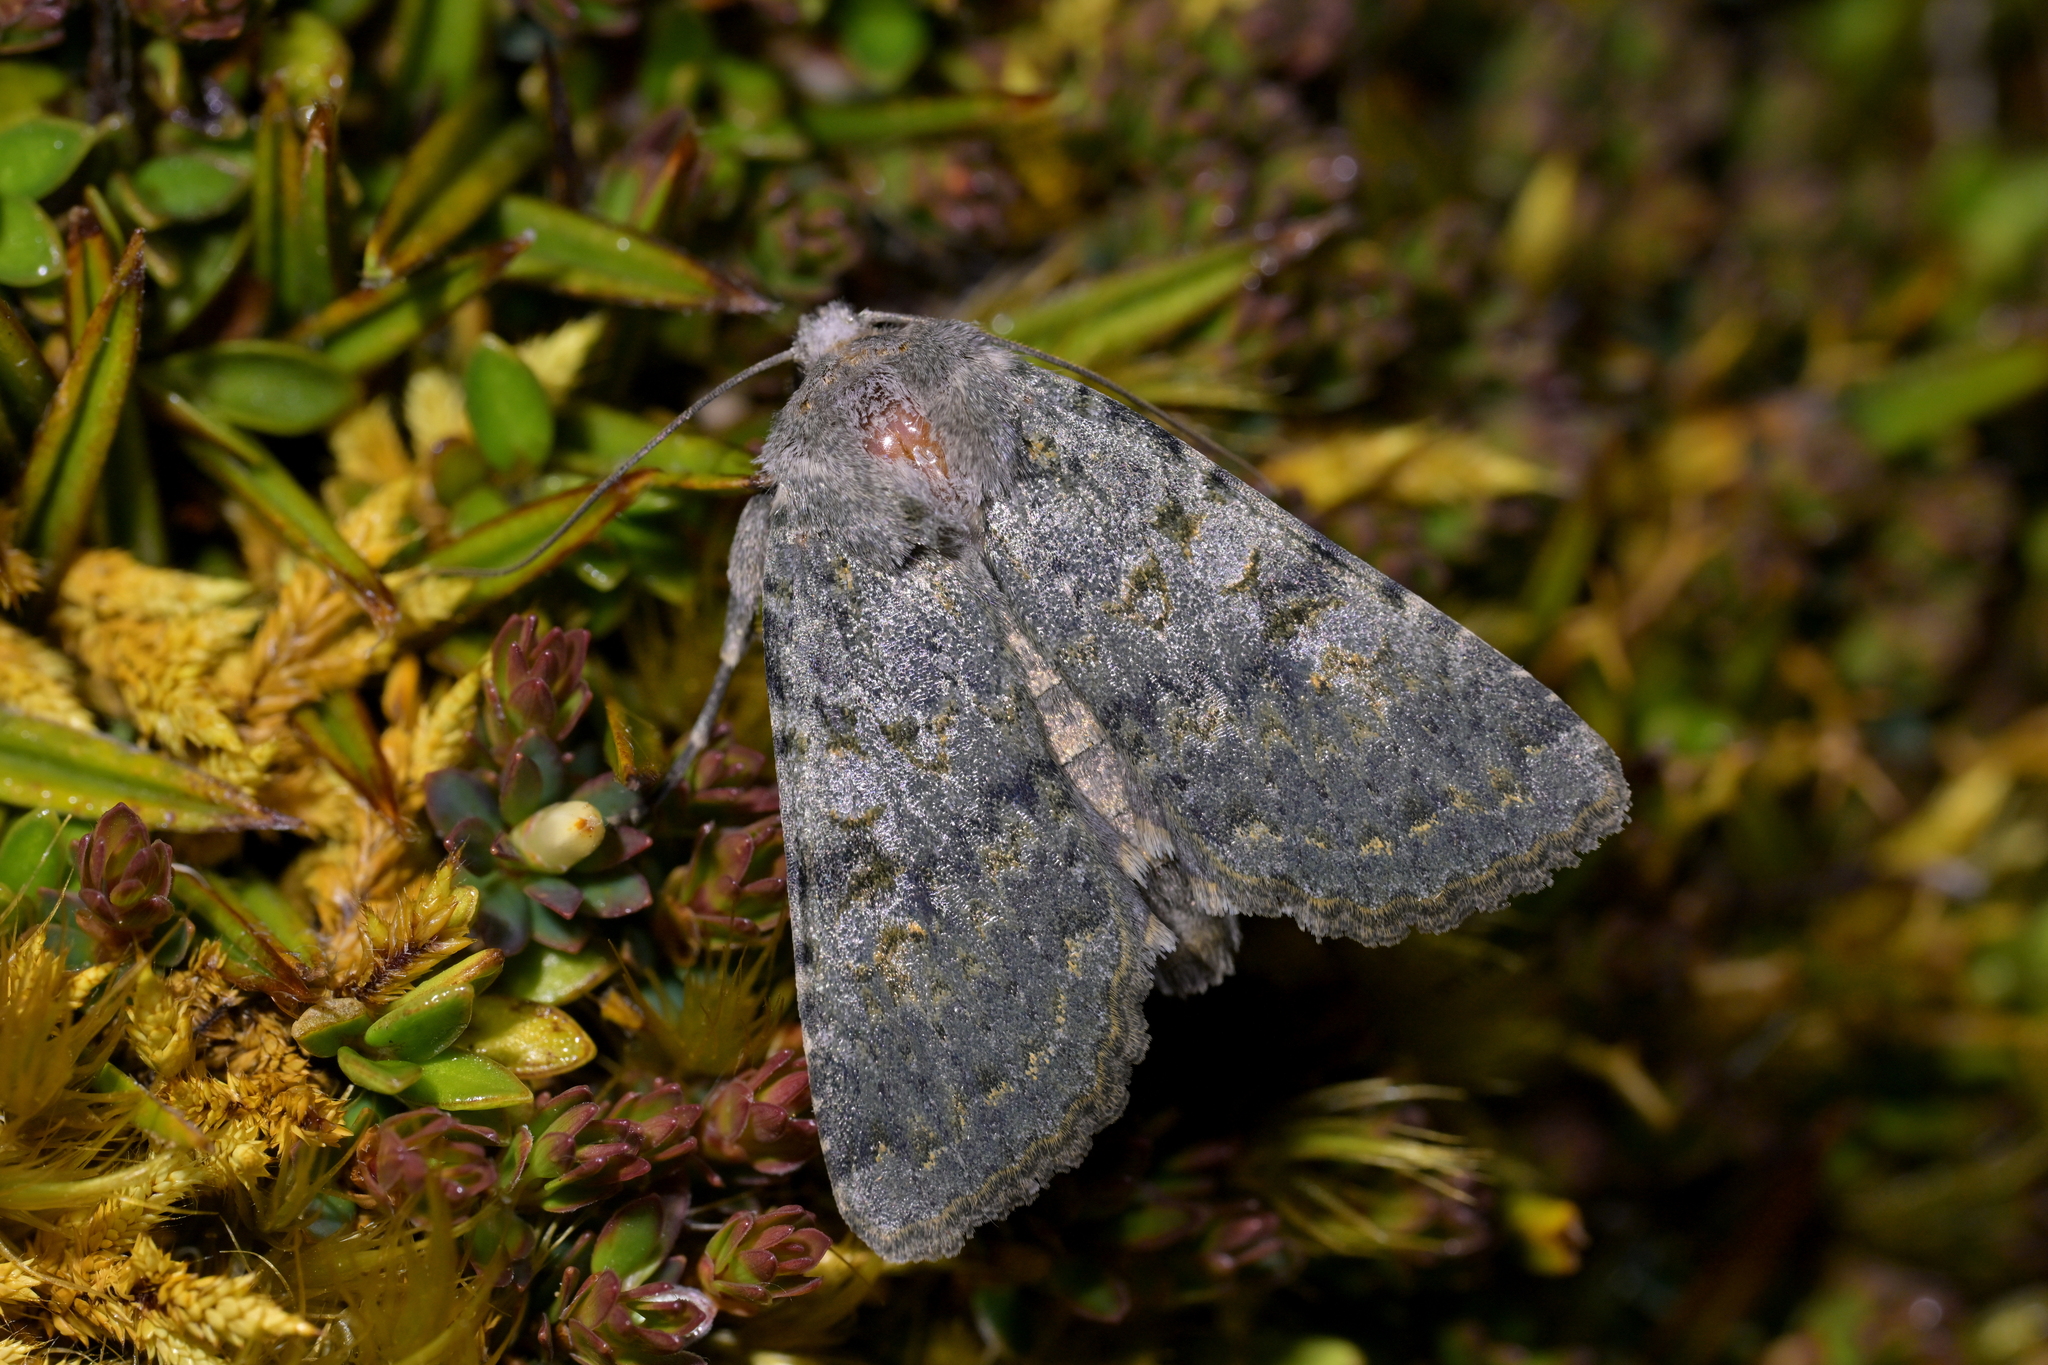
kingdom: Animalia
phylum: Arthropoda
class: Insecta
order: Lepidoptera
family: Noctuidae
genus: Ichneutica
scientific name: Ichneutica
